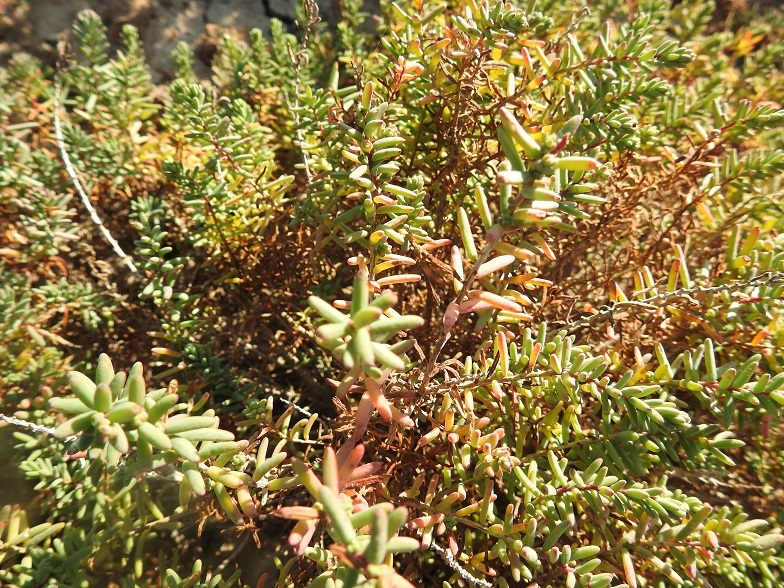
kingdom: Plantae
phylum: Tracheophyta
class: Magnoliopsida
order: Caryophyllales
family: Amaranthaceae
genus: Suaeda
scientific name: Suaeda vera
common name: Shrubby sea-blite
